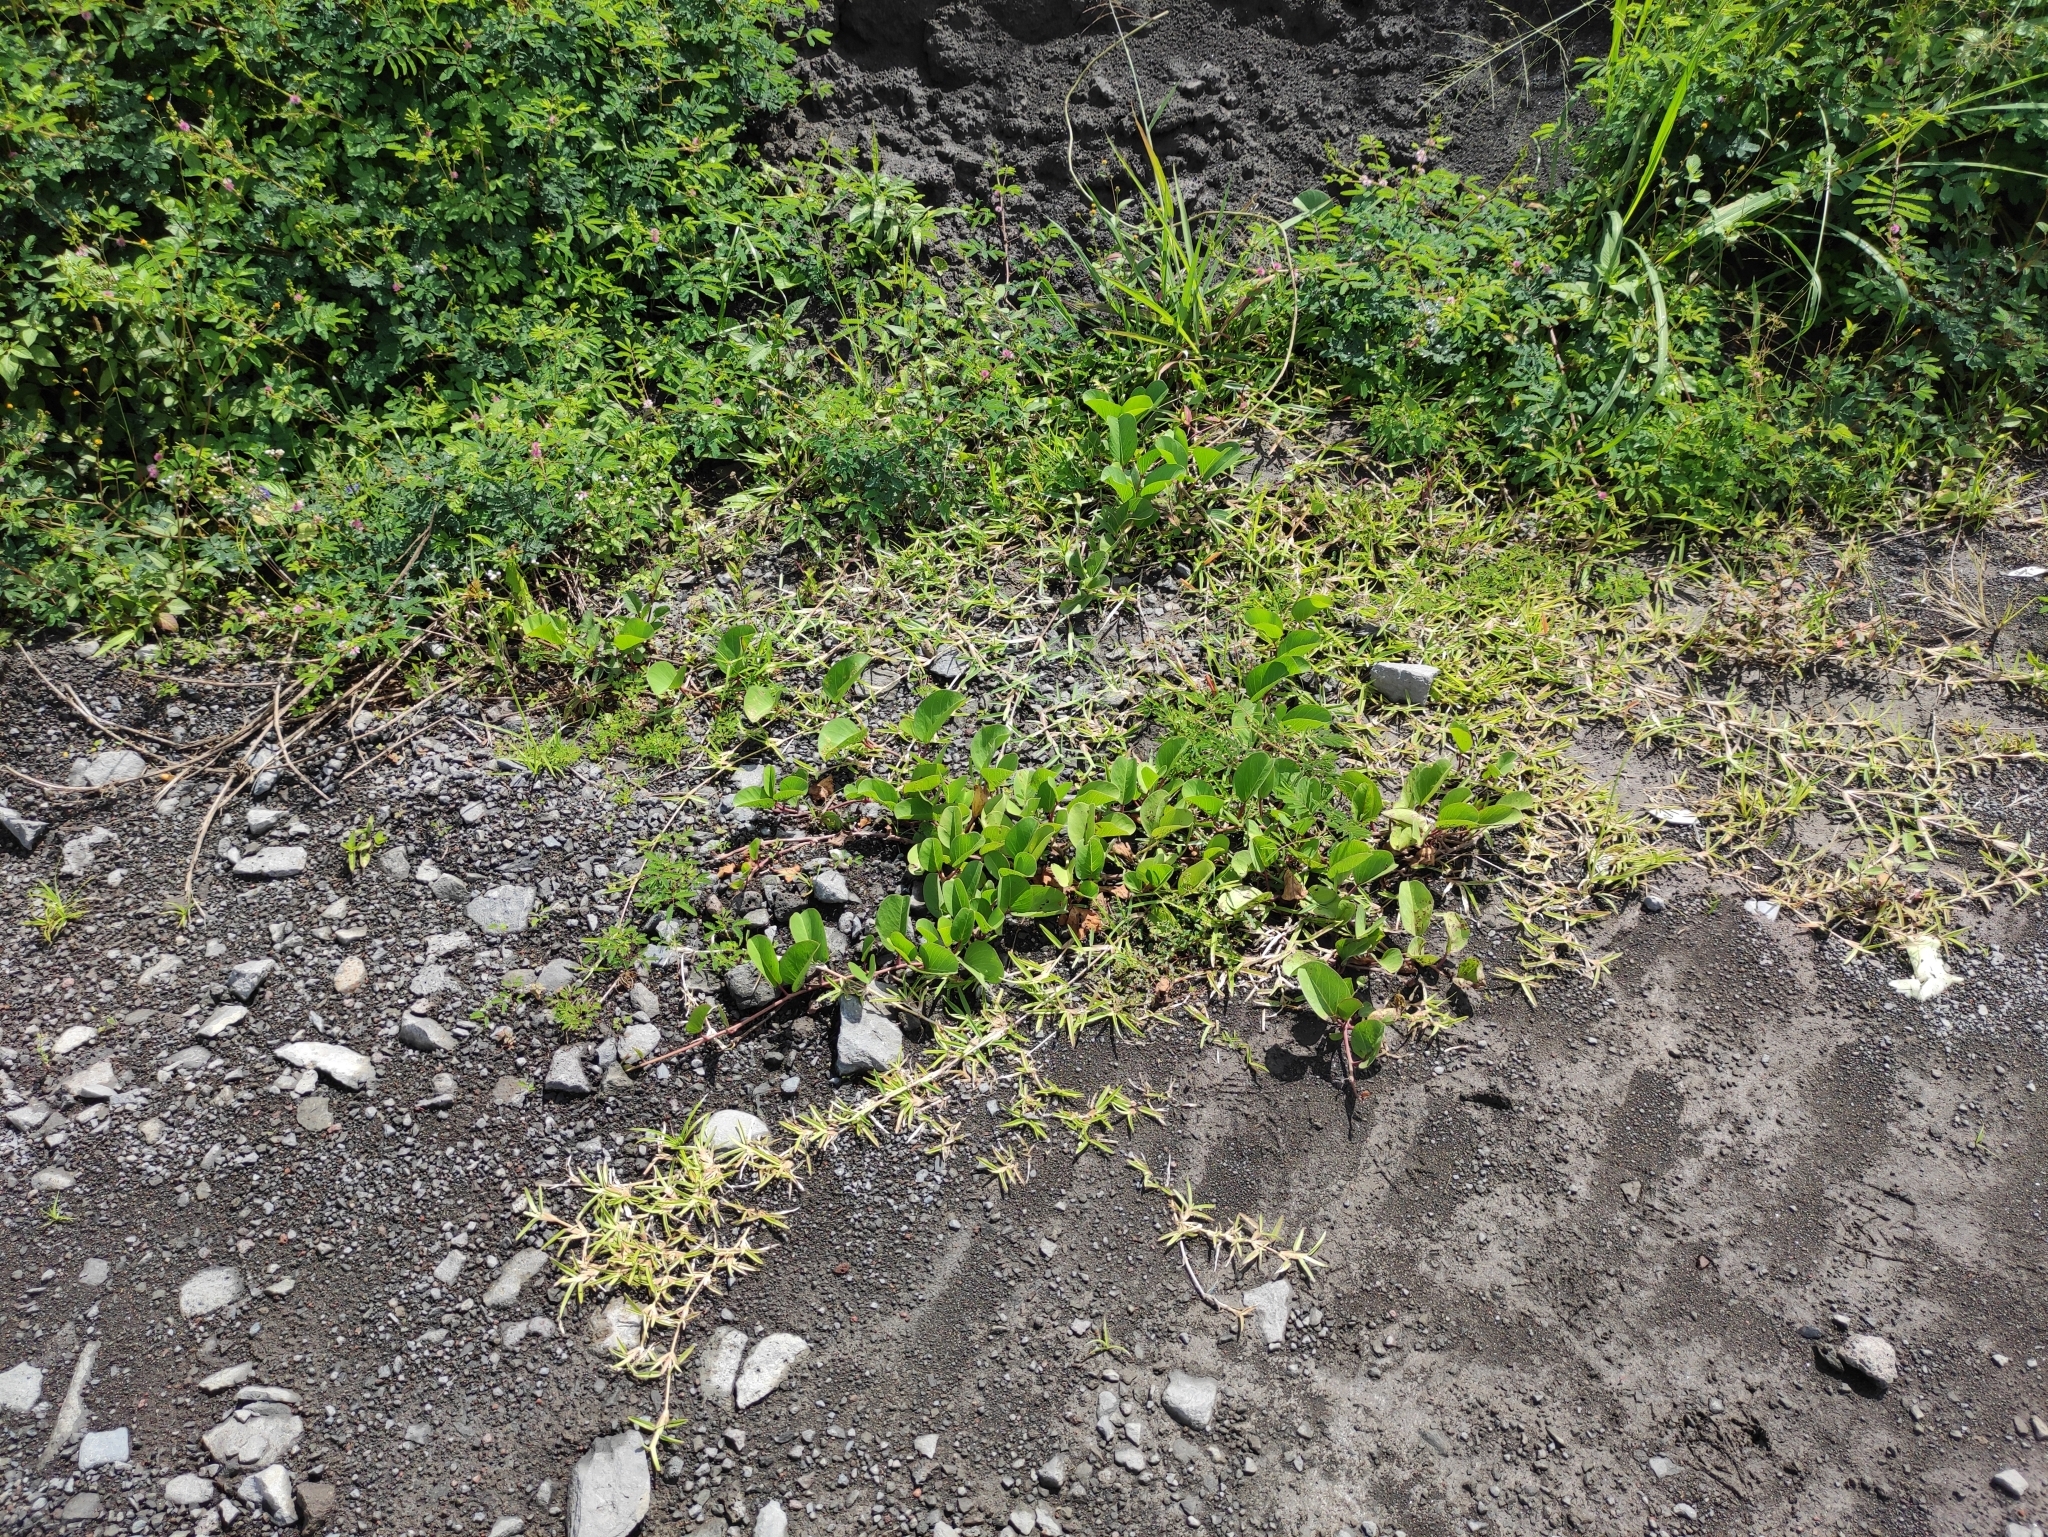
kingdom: Plantae
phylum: Tracheophyta
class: Magnoliopsida
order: Solanales
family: Convolvulaceae
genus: Ipomoea
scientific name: Ipomoea pes-caprae
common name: Beach morning glory
